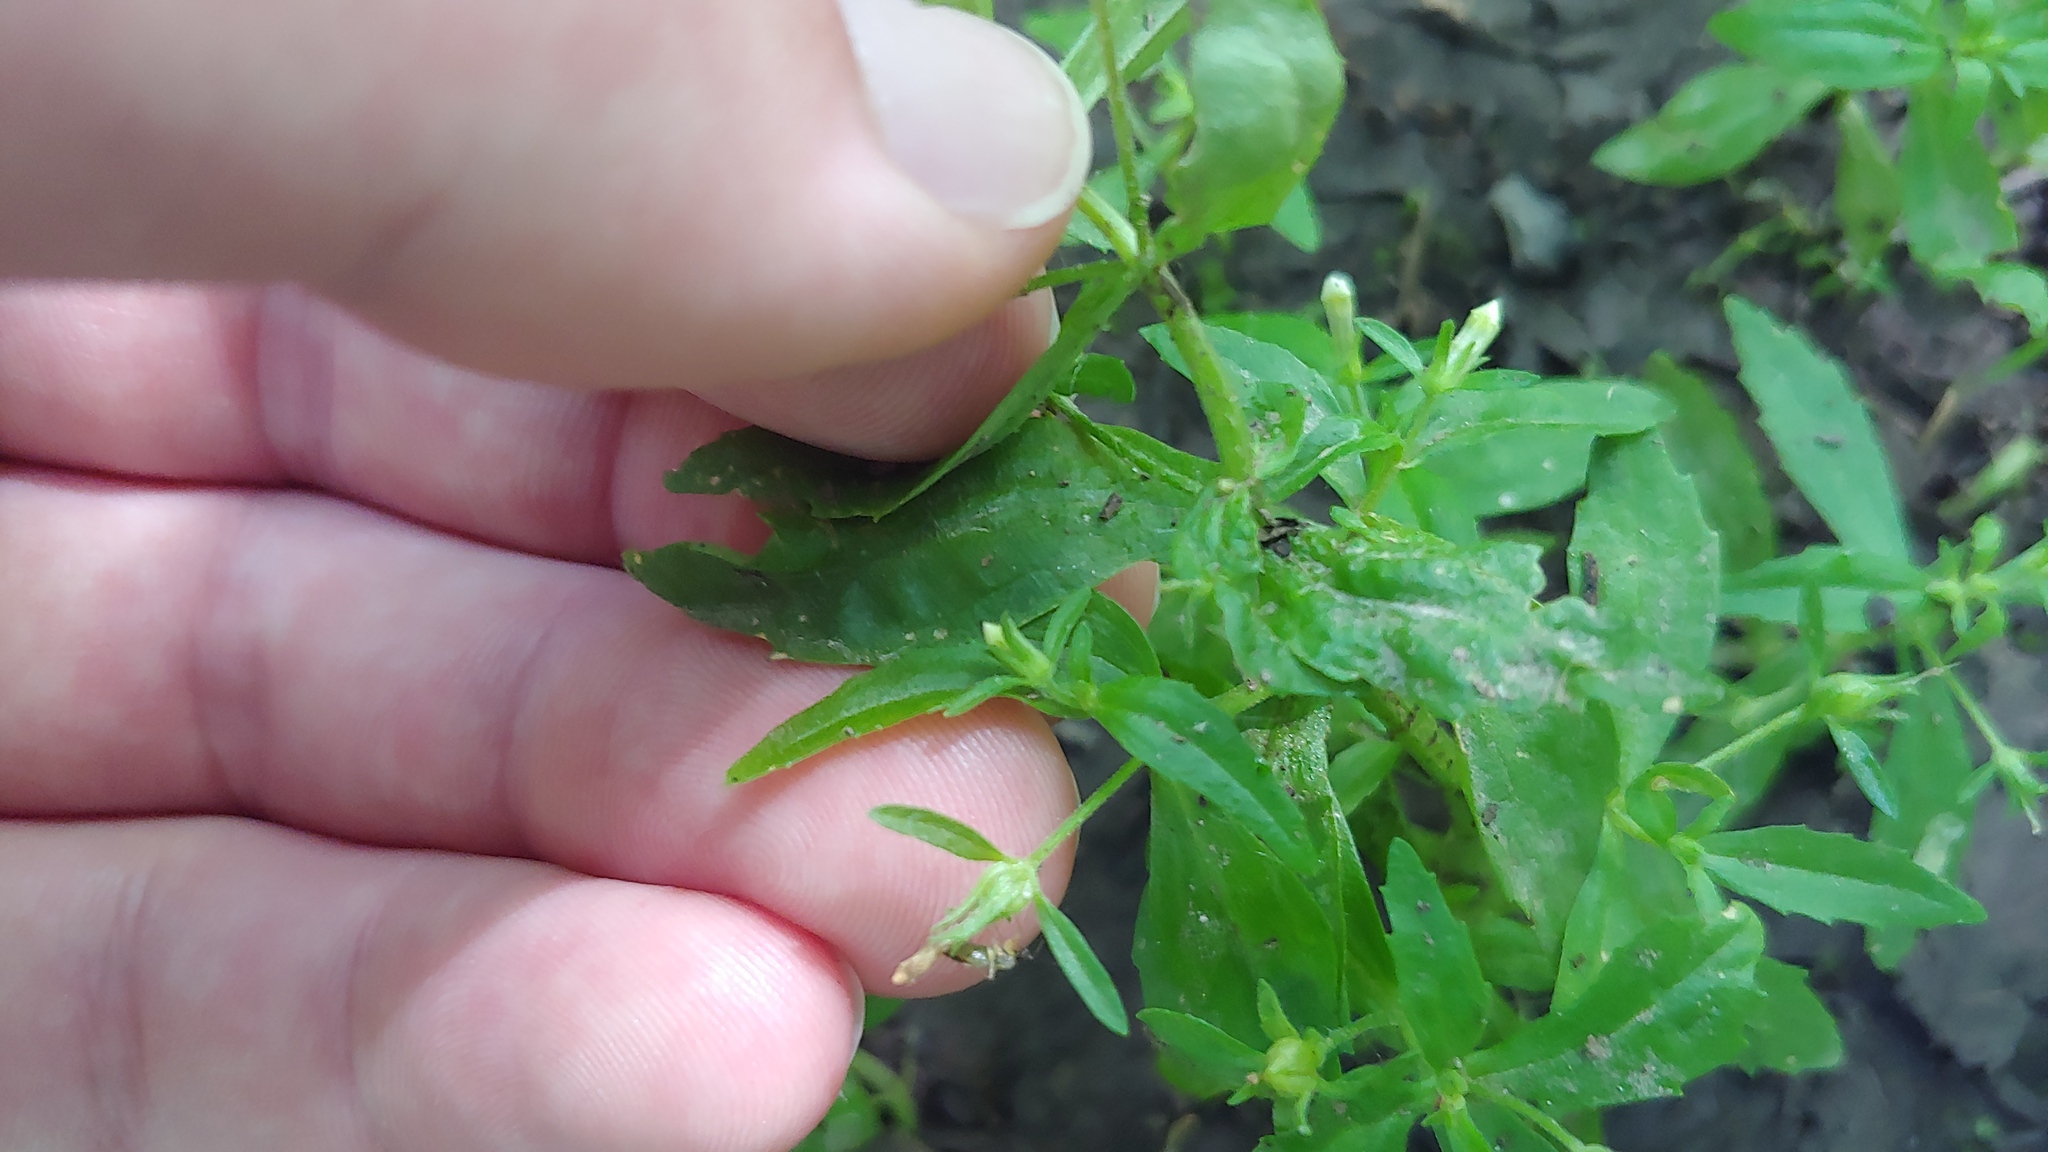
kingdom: Plantae
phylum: Tracheophyta
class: Magnoliopsida
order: Lamiales
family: Plantaginaceae
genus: Gratiola
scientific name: Gratiola neglecta
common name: American hedge-hyssop
